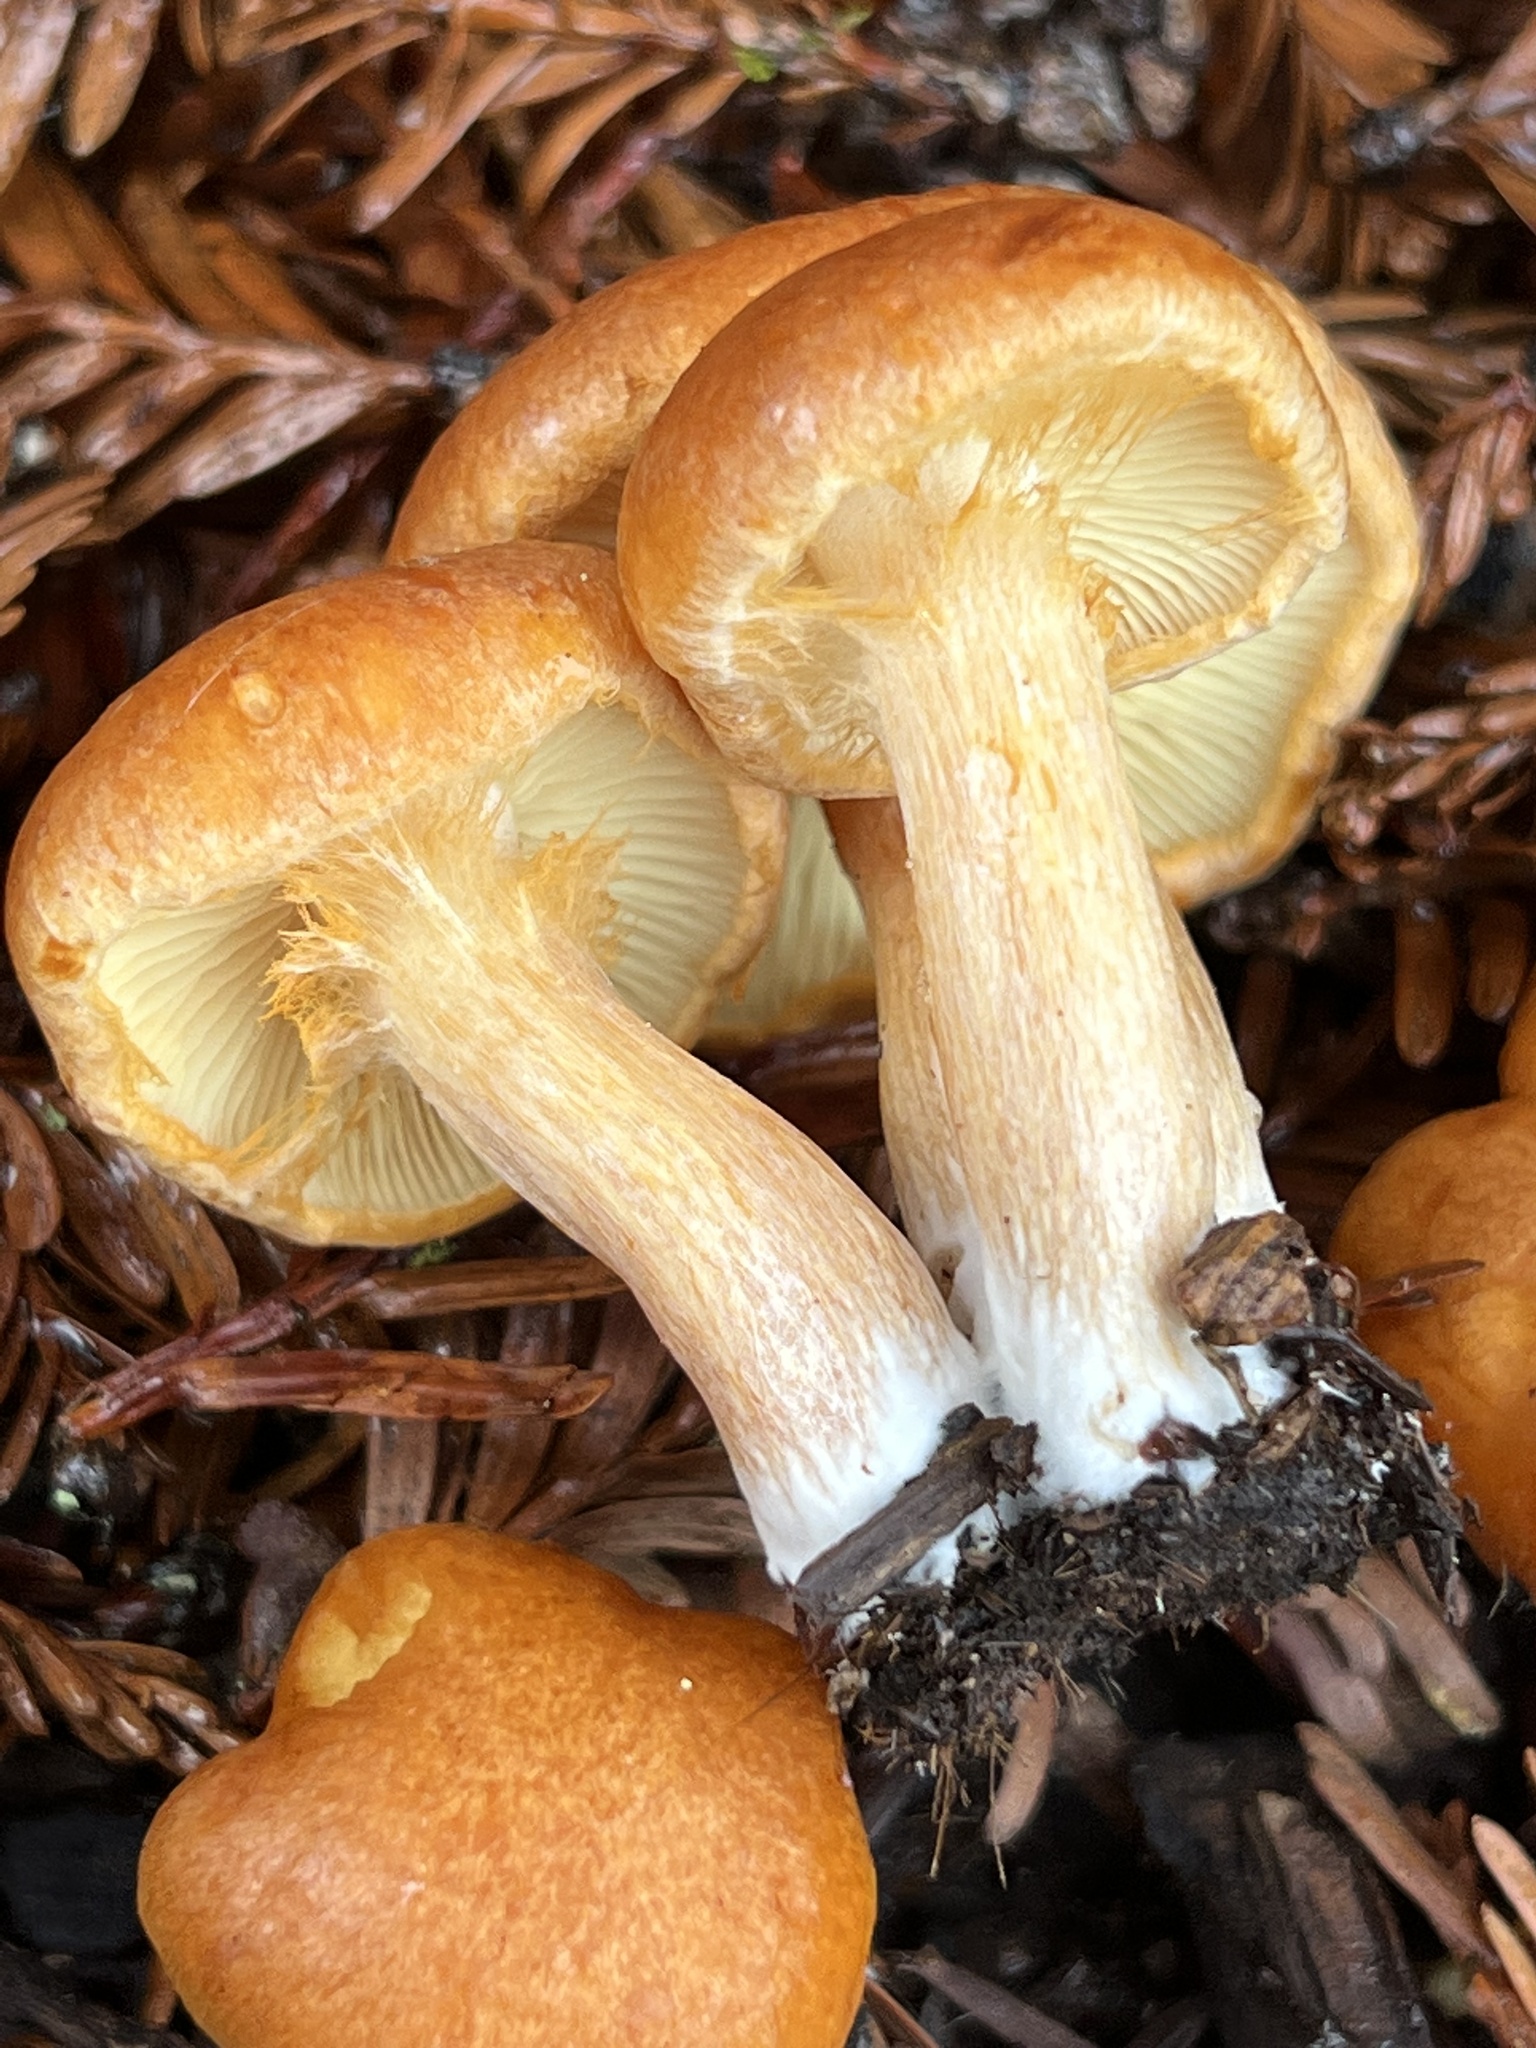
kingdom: Fungi
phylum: Basidiomycota
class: Agaricomycetes
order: Agaricales
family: Hymenogastraceae
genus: Gymnopilus
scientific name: Gymnopilus aurantiophyllus
